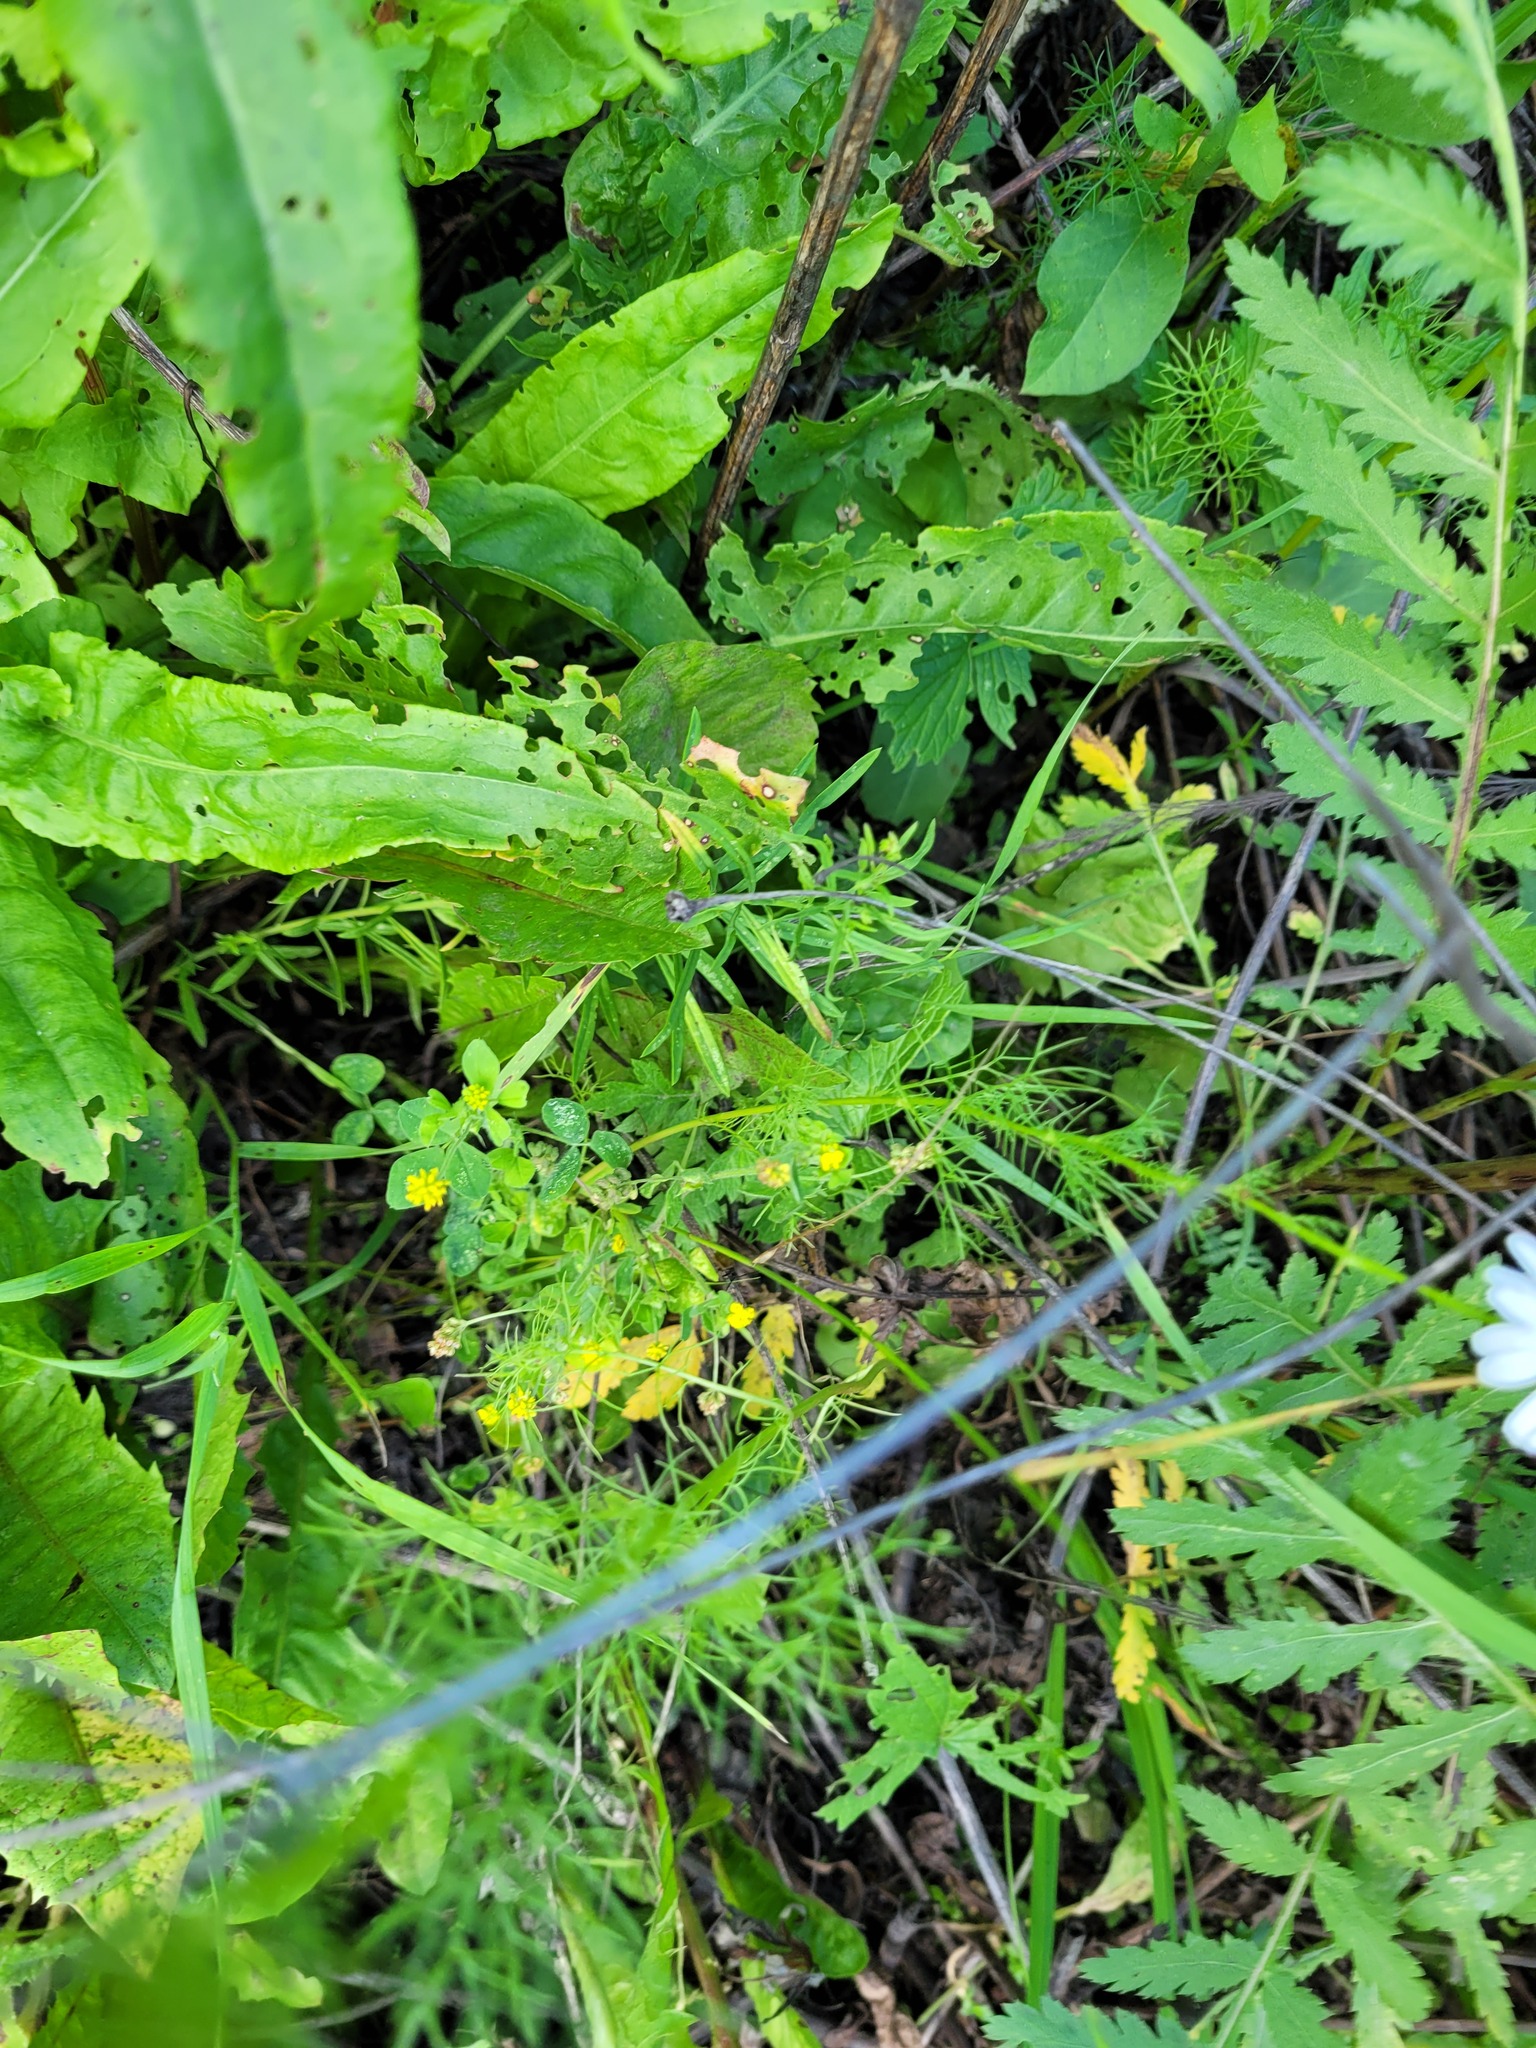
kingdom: Plantae
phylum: Tracheophyta
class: Magnoliopsida
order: Fabales
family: Fabaceae
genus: Medicago
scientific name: Medicago lupulina
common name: Black medick
